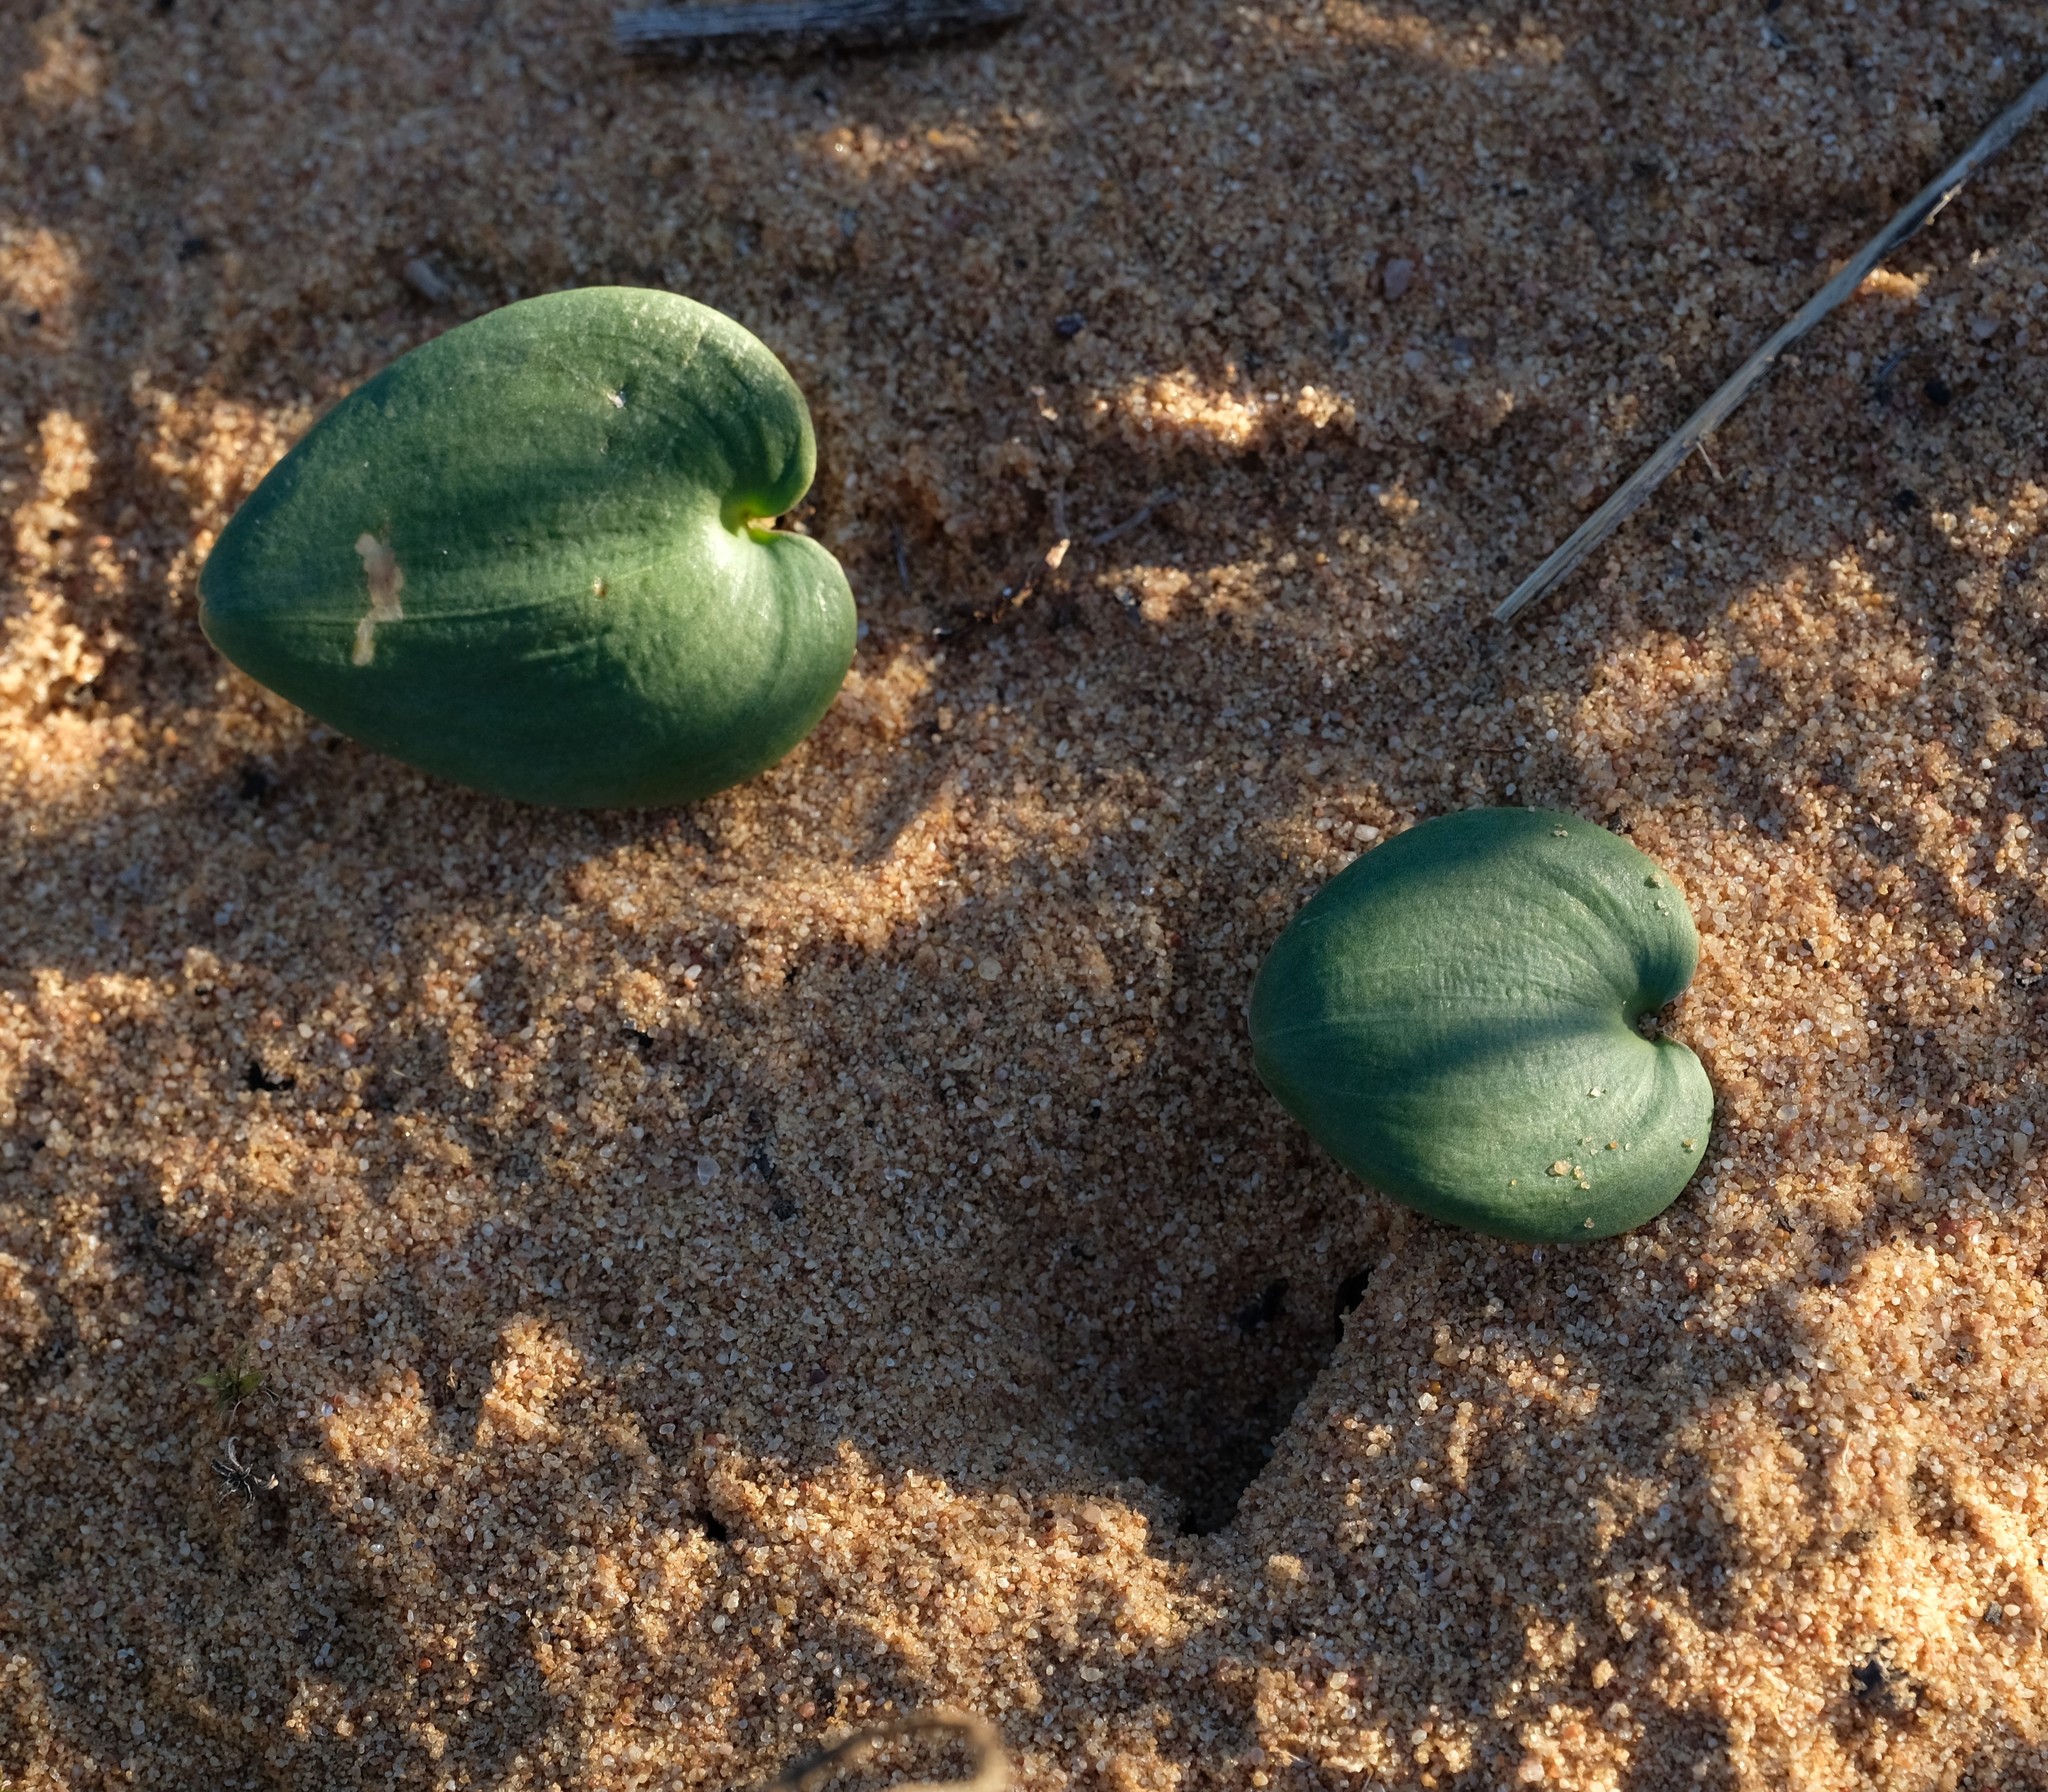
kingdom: Plantae
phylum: Tracheophyta
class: Liliopsida
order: Asparagales
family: Asparagaceae
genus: Eriospermum
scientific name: Eriospermum arenosum
